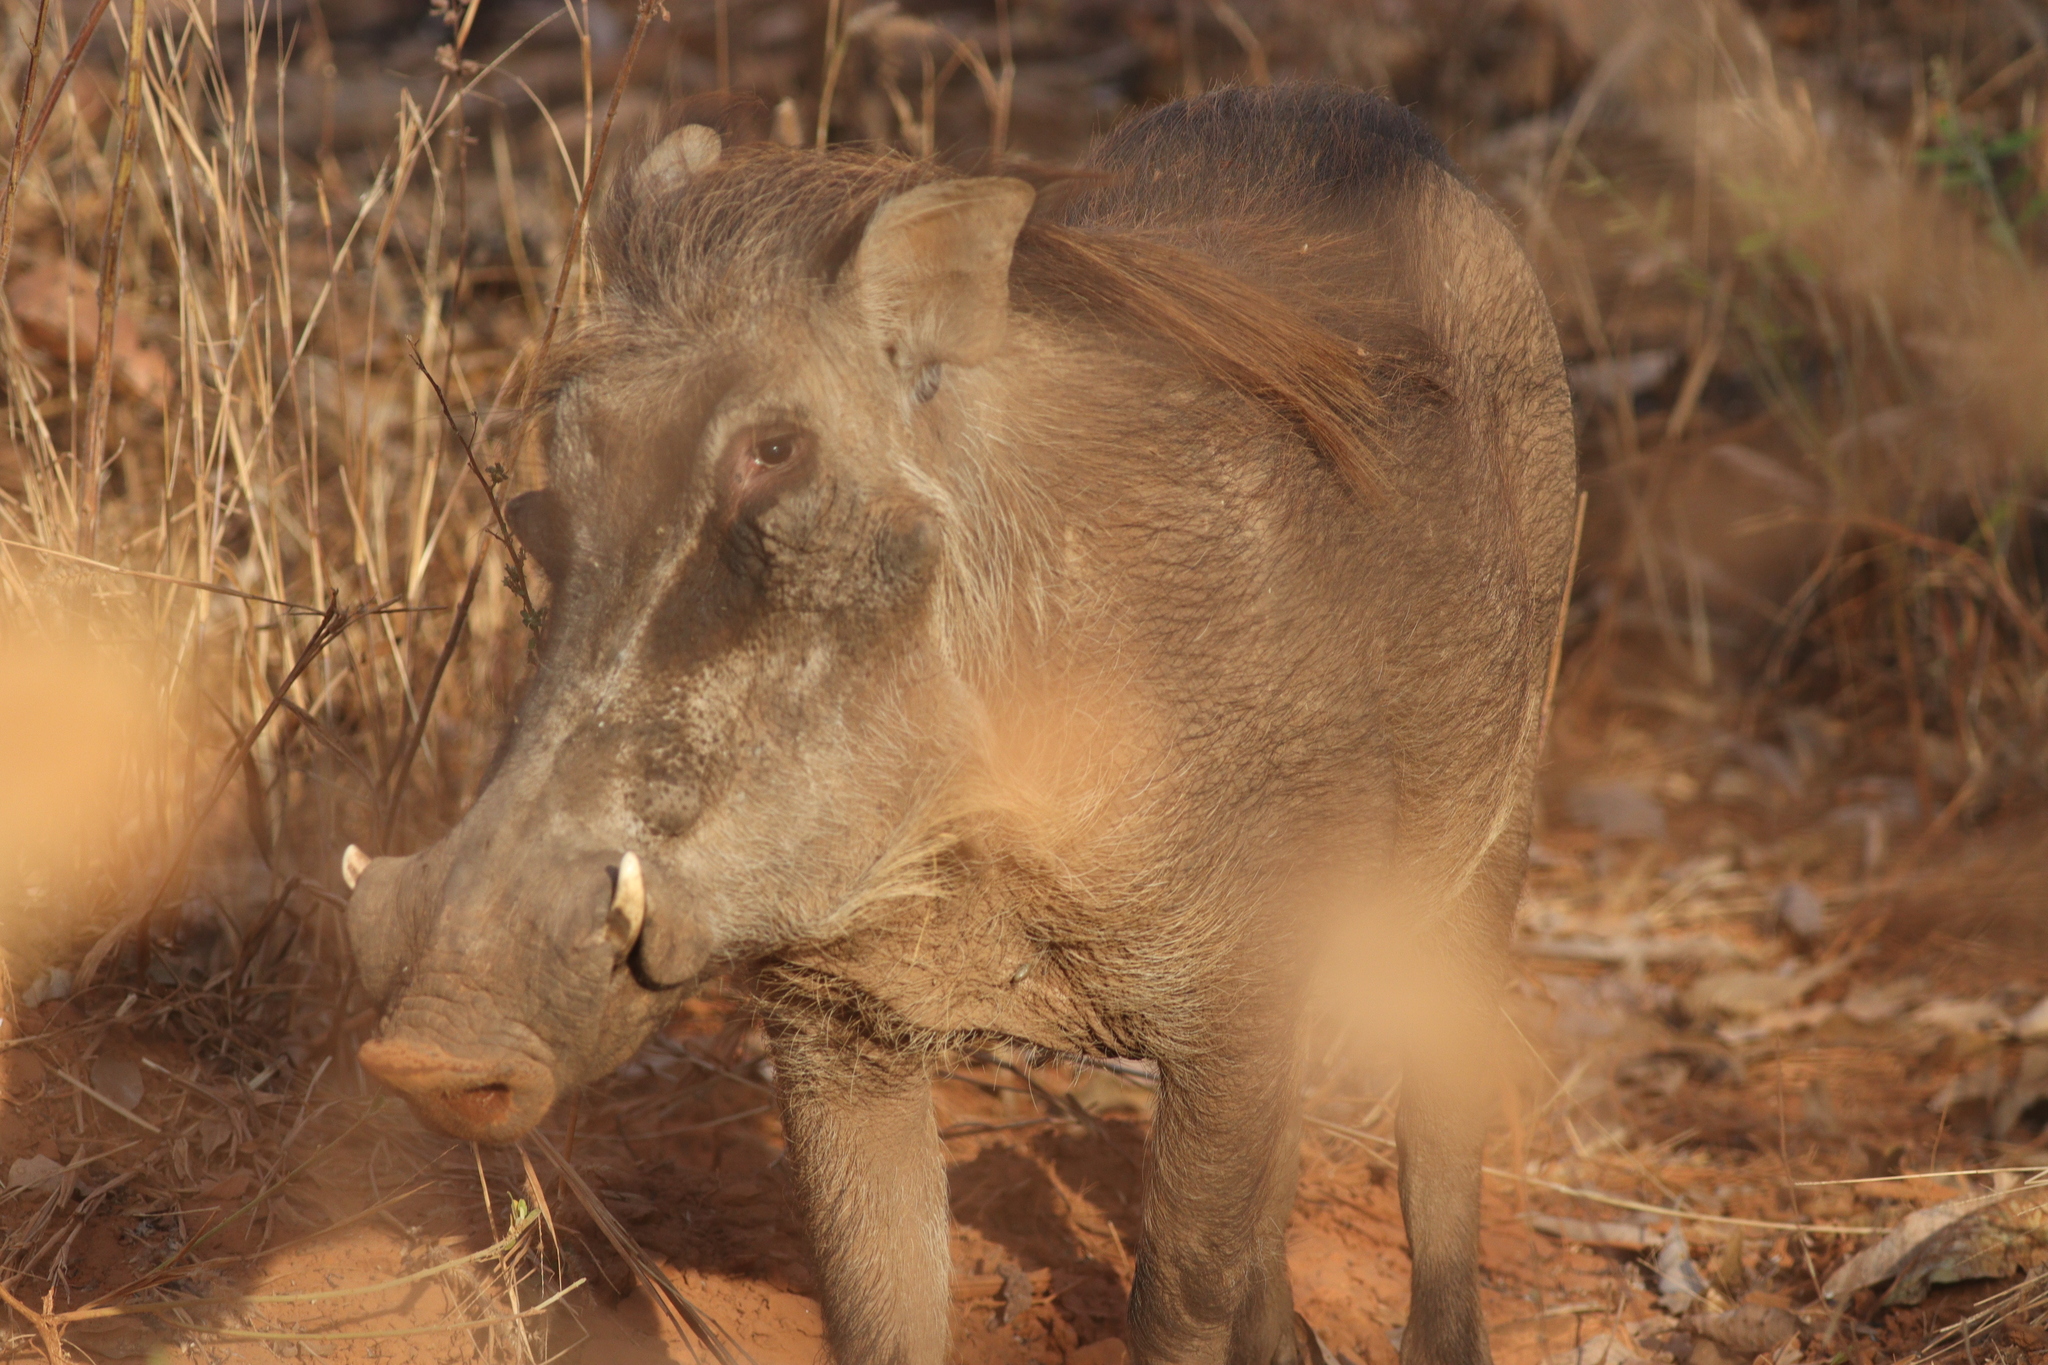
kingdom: Animalia
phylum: Chordata
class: Mammalia
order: Artiodactyla
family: Suidae
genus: Phacochoerus
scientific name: Phacochoerus africanus
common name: Common warthog
